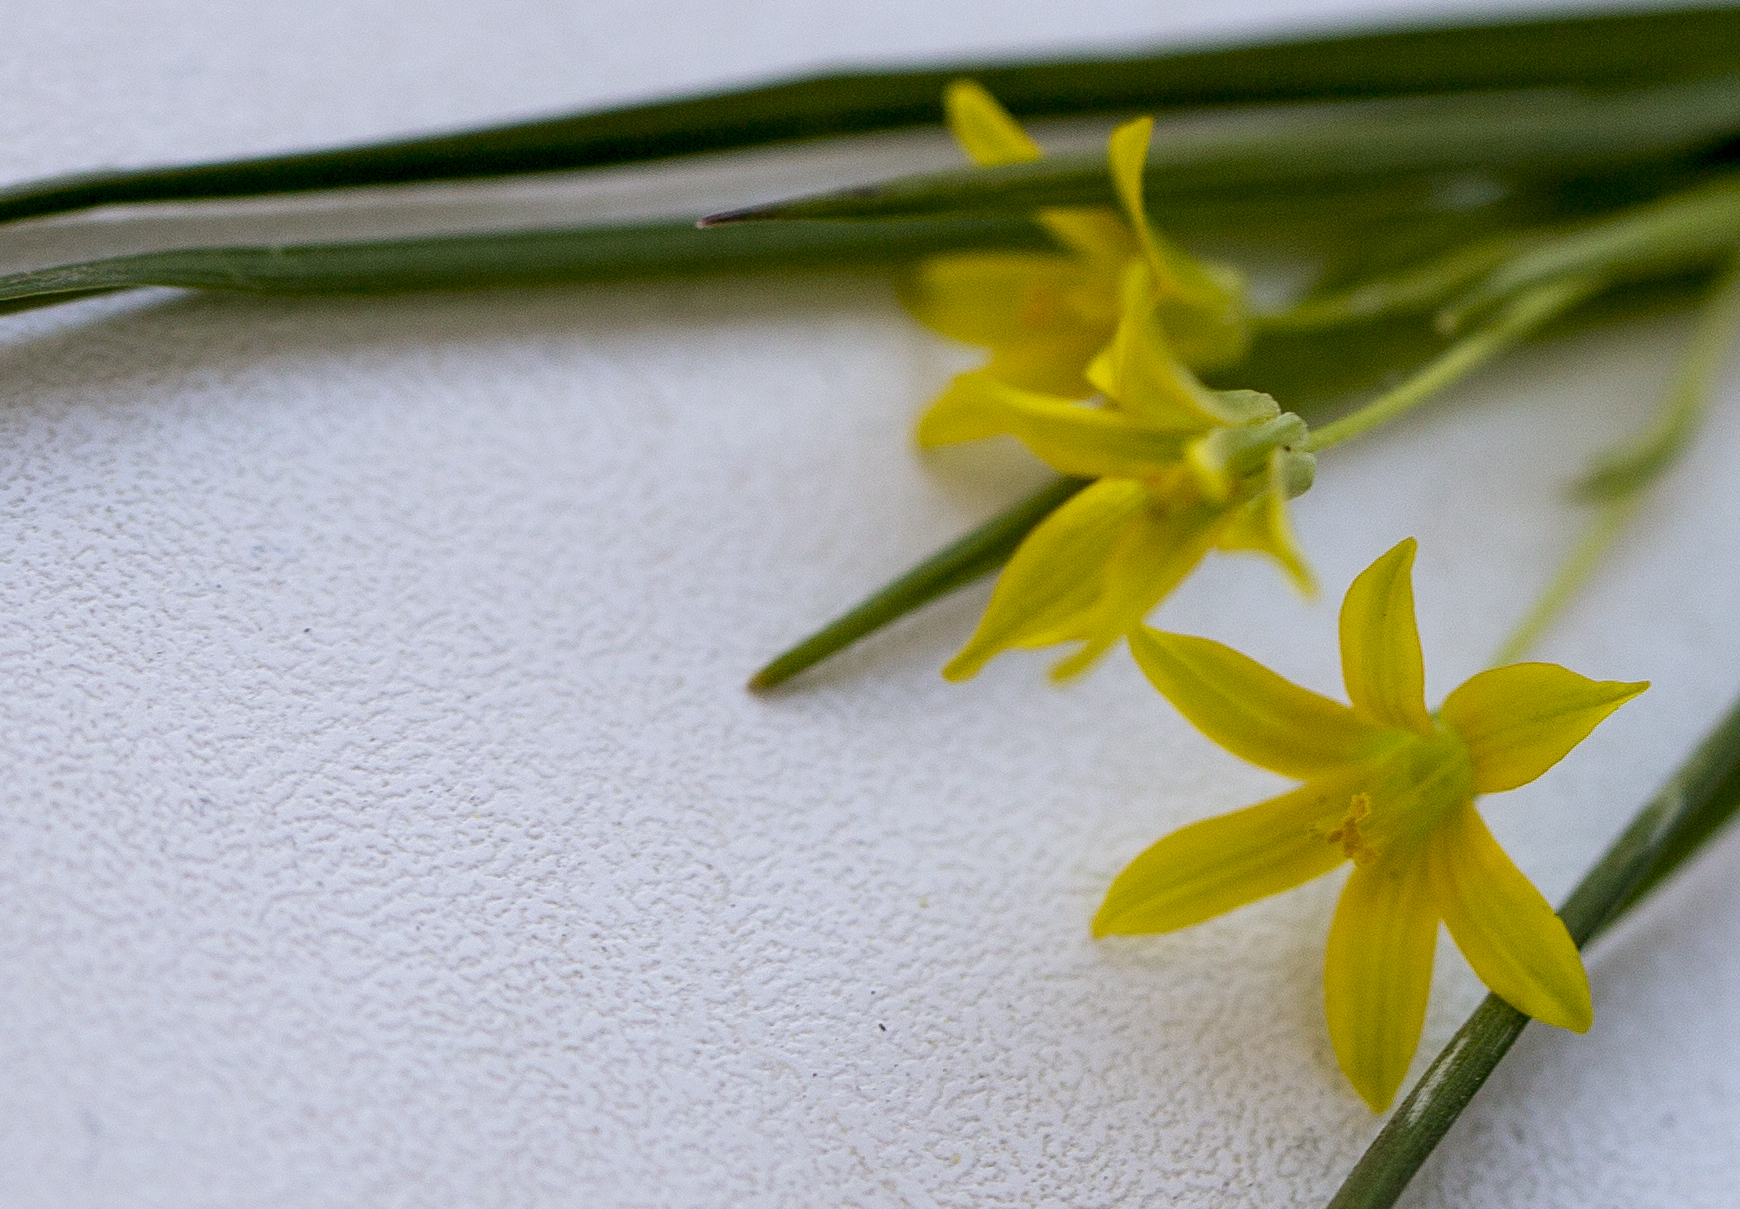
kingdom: Plantae
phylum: Tracheophyta
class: Liliopsida
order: Liliales
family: Liliaceae
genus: Gagea
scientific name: Gagea minima
